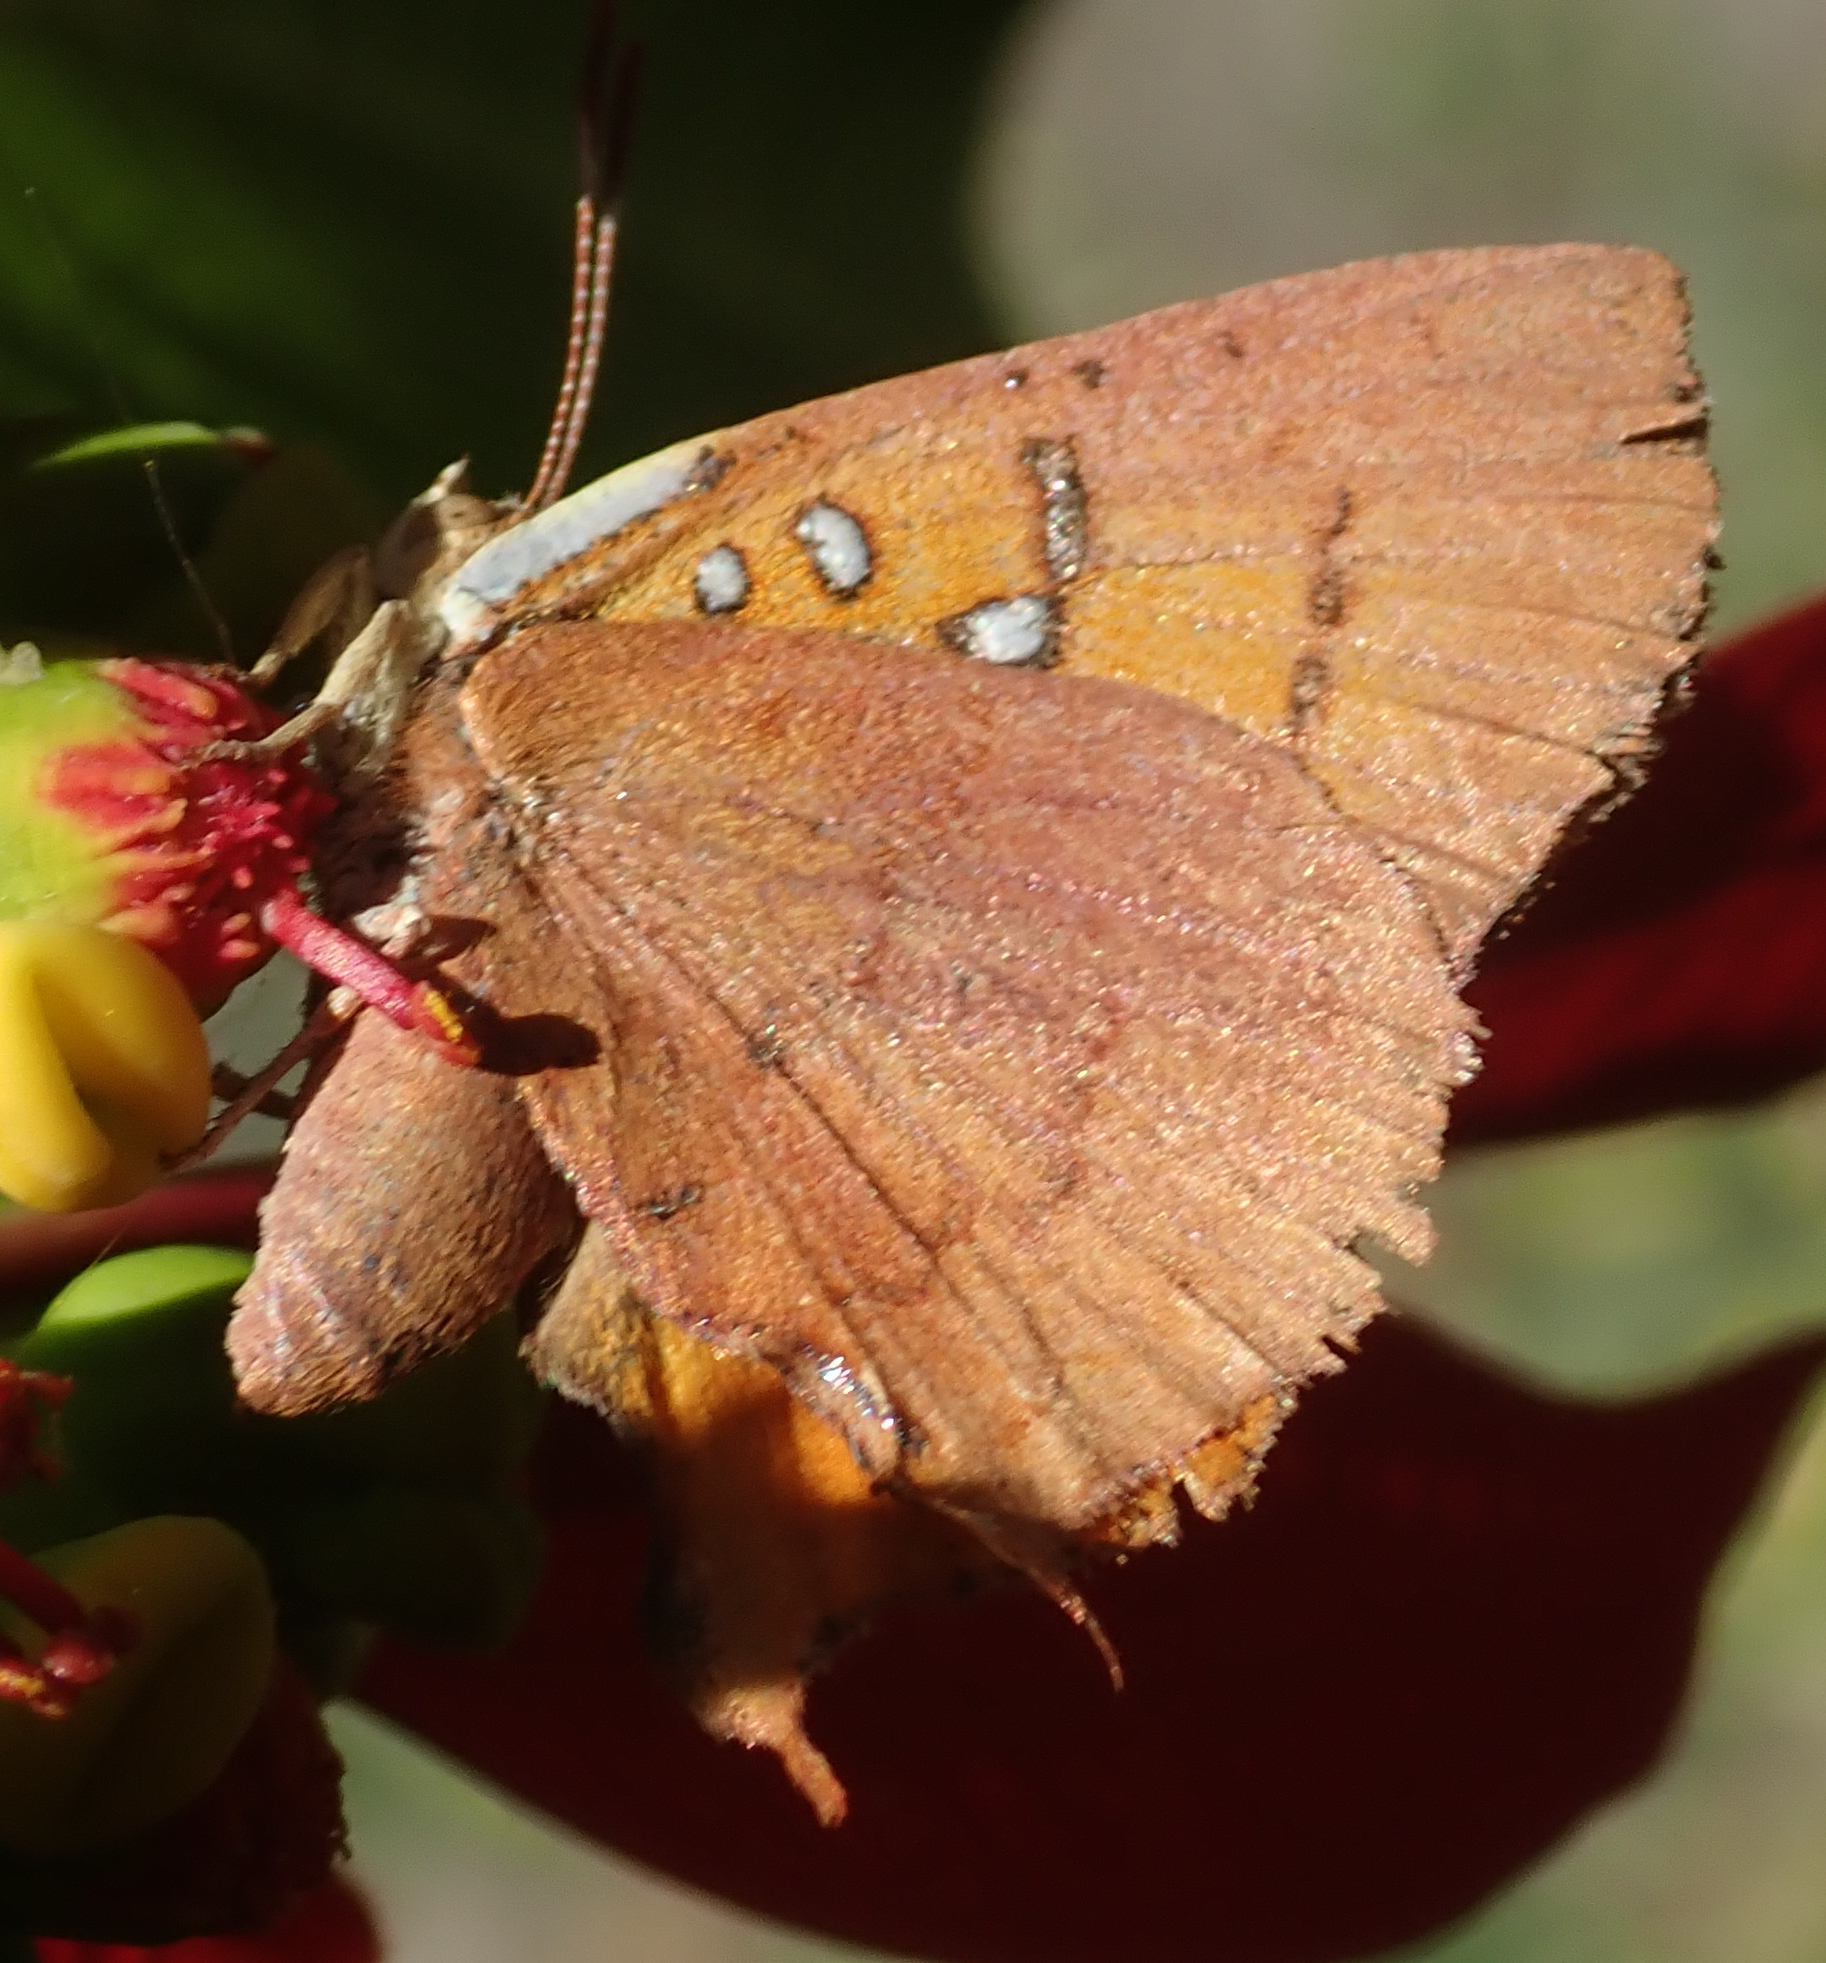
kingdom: Animalia
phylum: Arthropoda
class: Insecta
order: Lepidoptera
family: Lycaenidae
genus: Axiocerses
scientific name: Axiocerses amanga
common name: Bush scarlet
